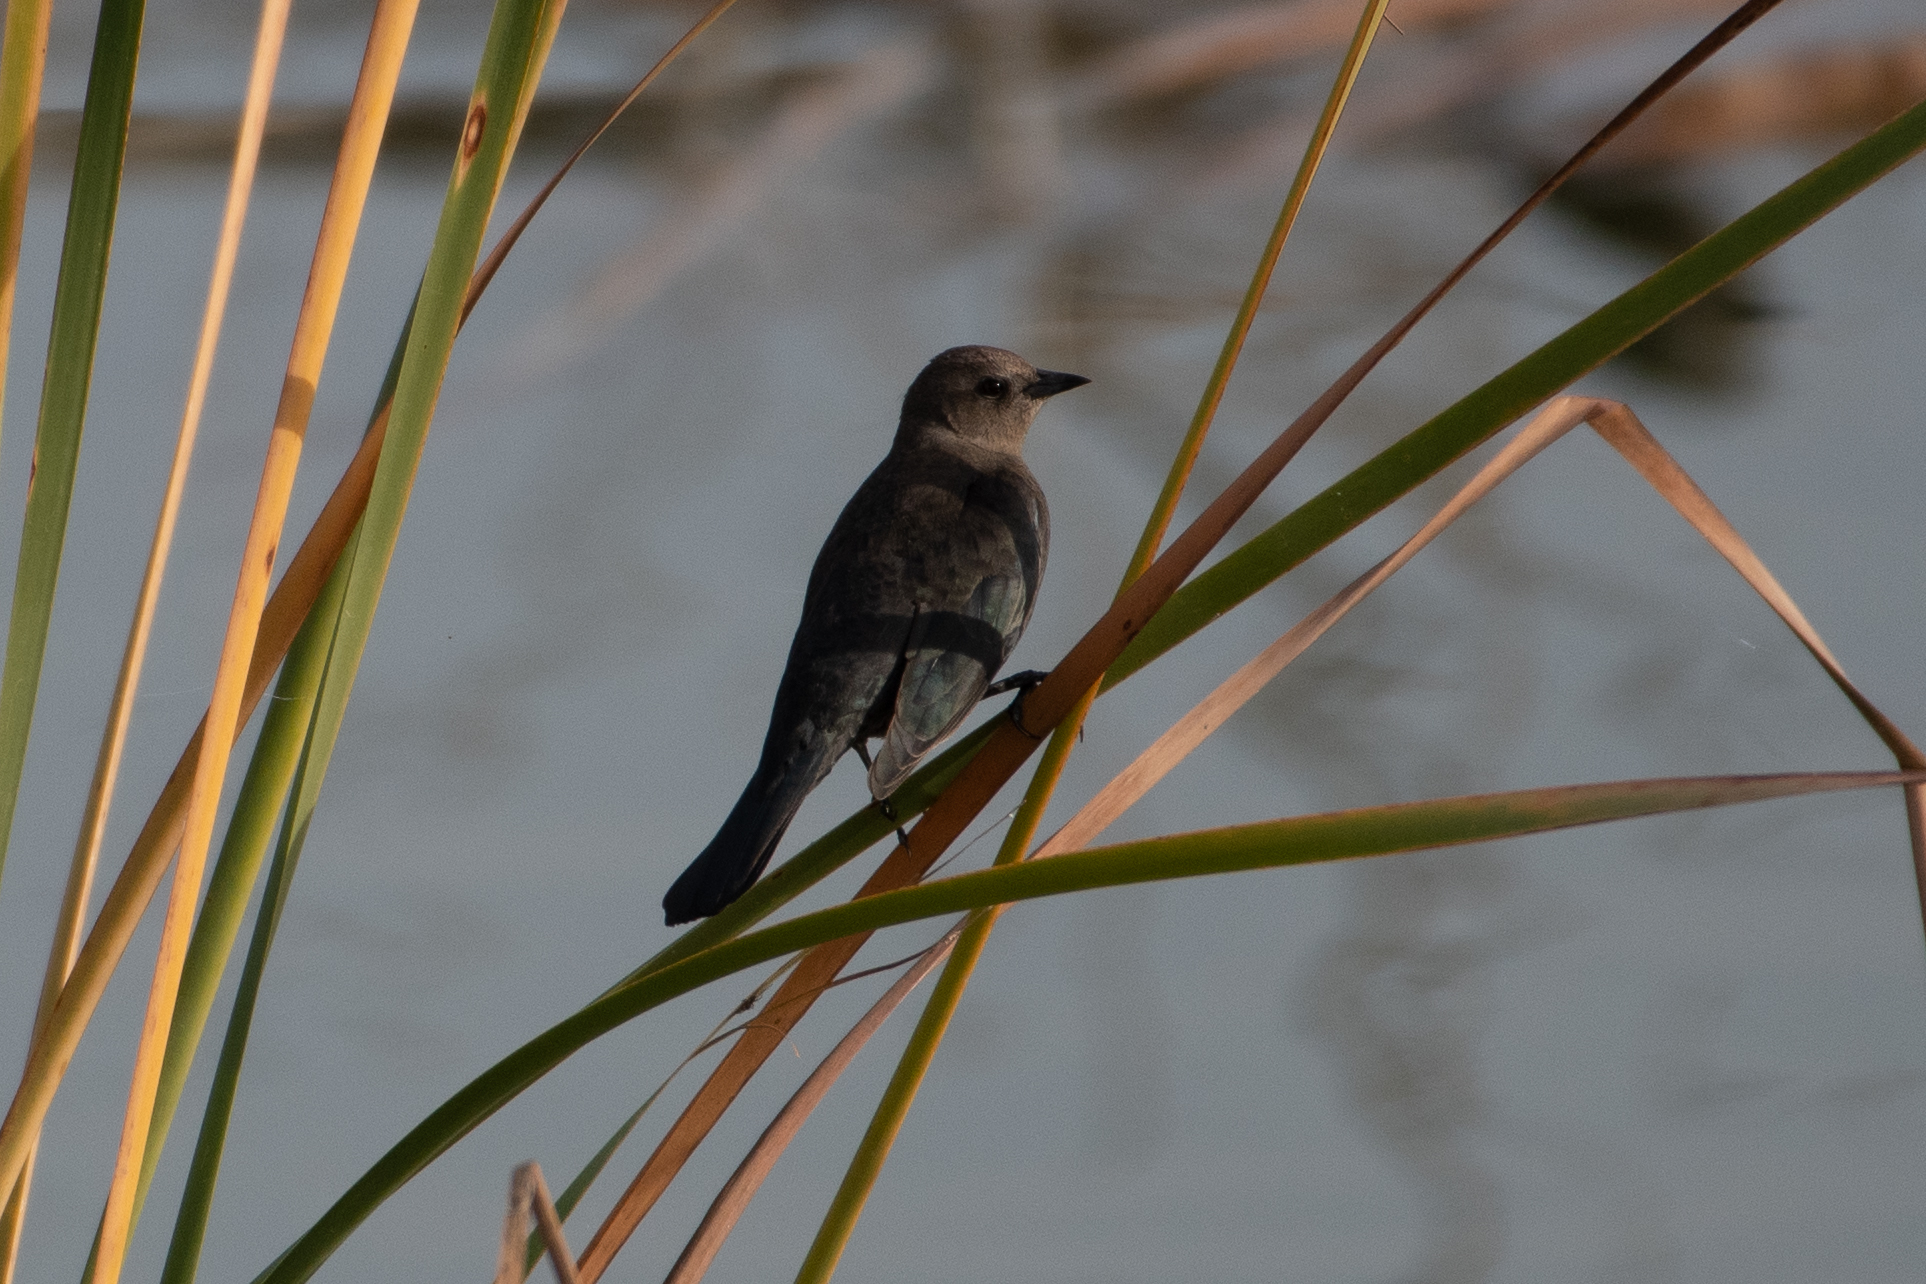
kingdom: Animalia
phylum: Chordata
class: Aves
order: Passeriformes
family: Icteridae
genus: Euphagus
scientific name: Euphagus cyanocephalus
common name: Brewer's blackbird
